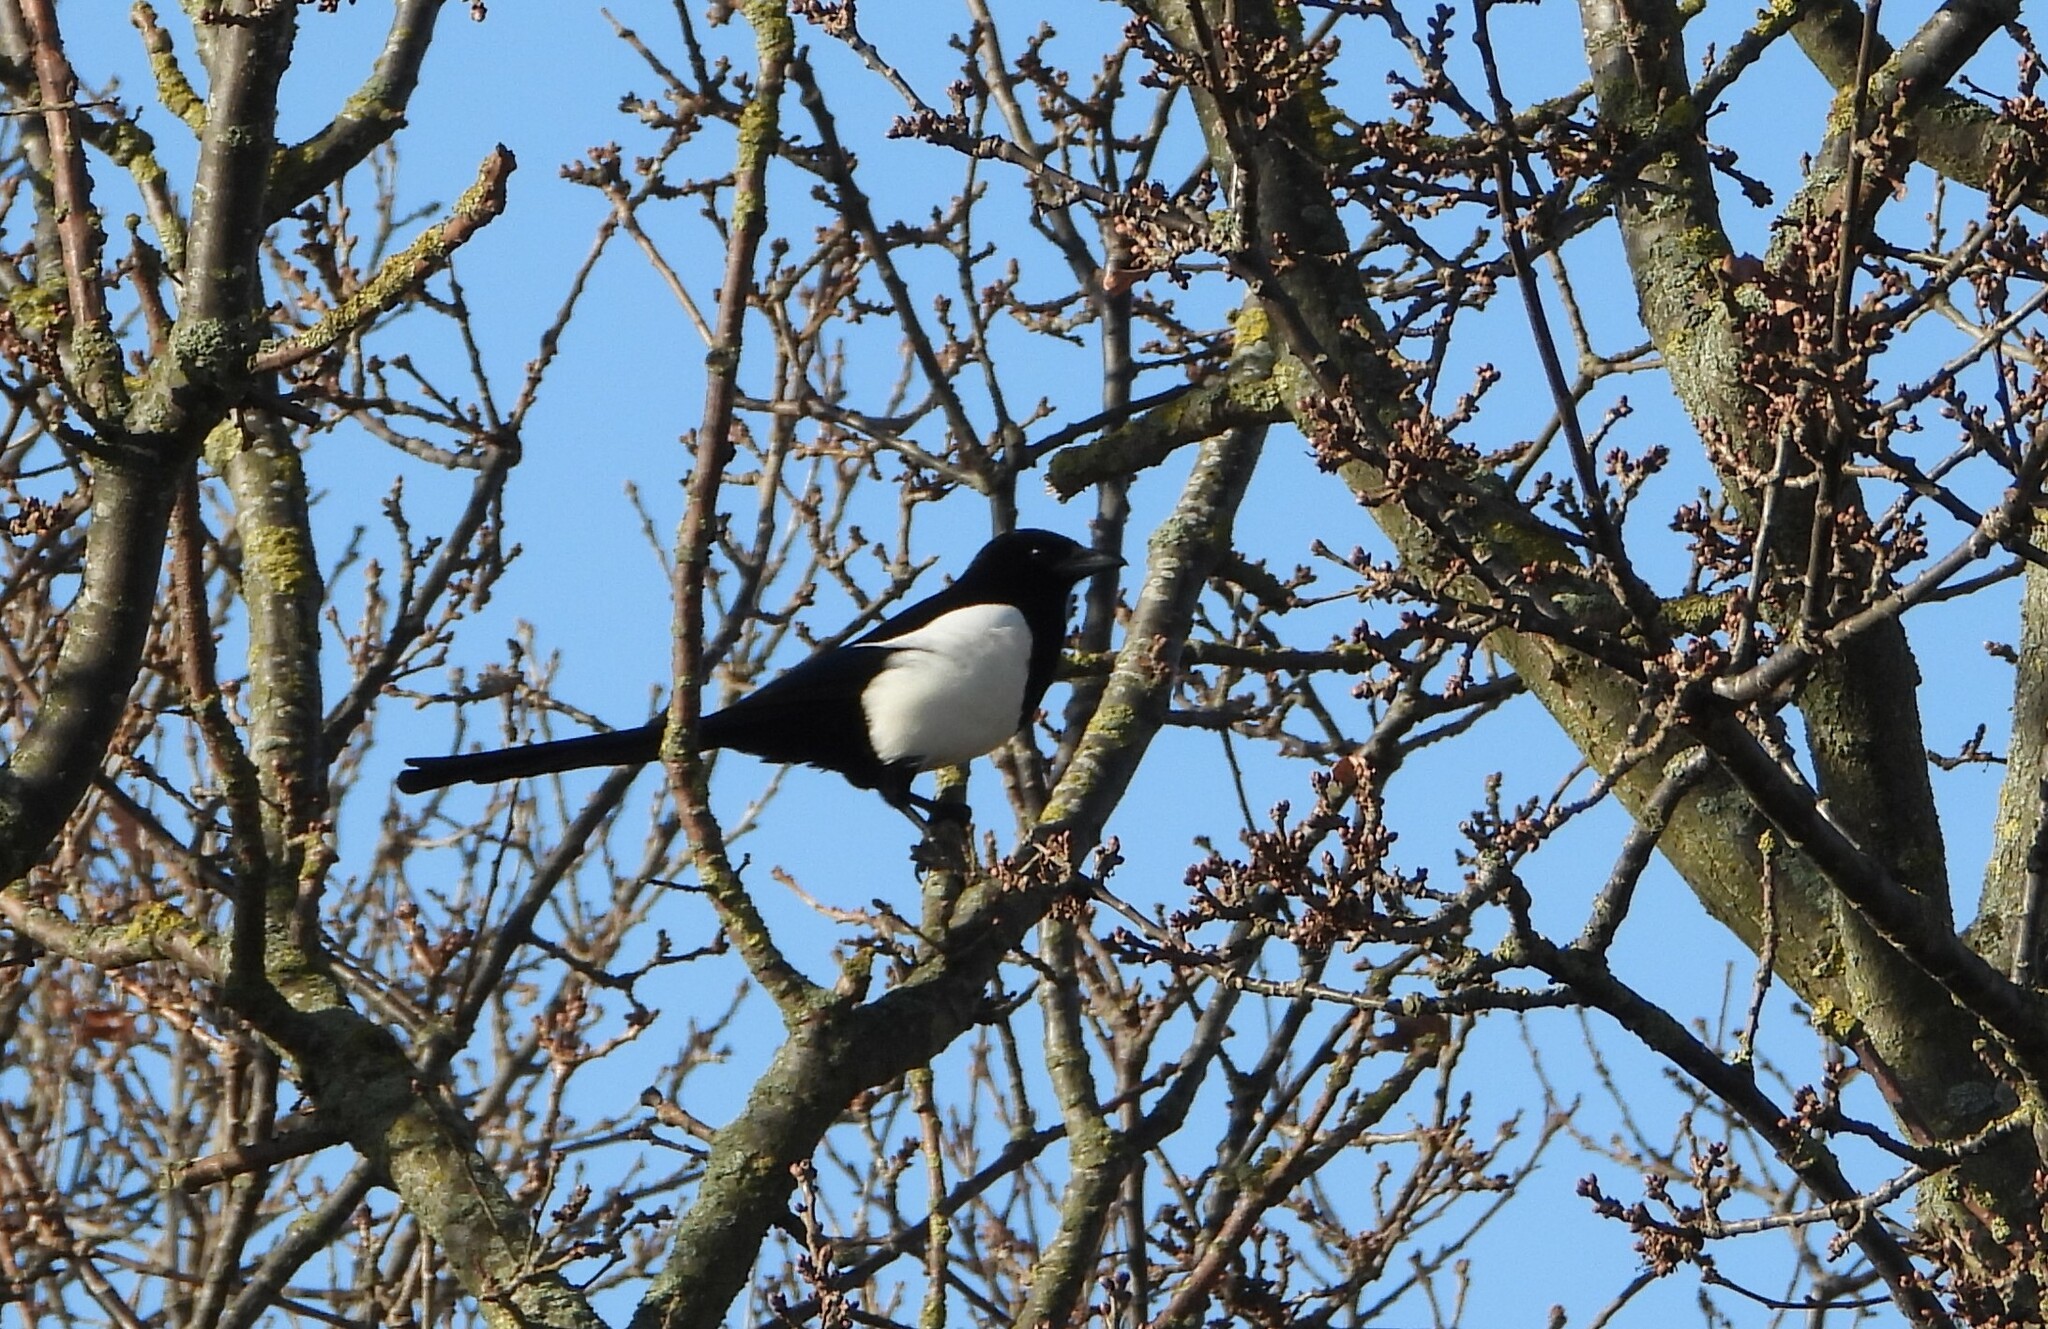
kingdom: Animalia
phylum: Chordata
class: Aves
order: Passeriformes
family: Corvidae
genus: Pica
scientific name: Pica pica
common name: Eurasian magpie
